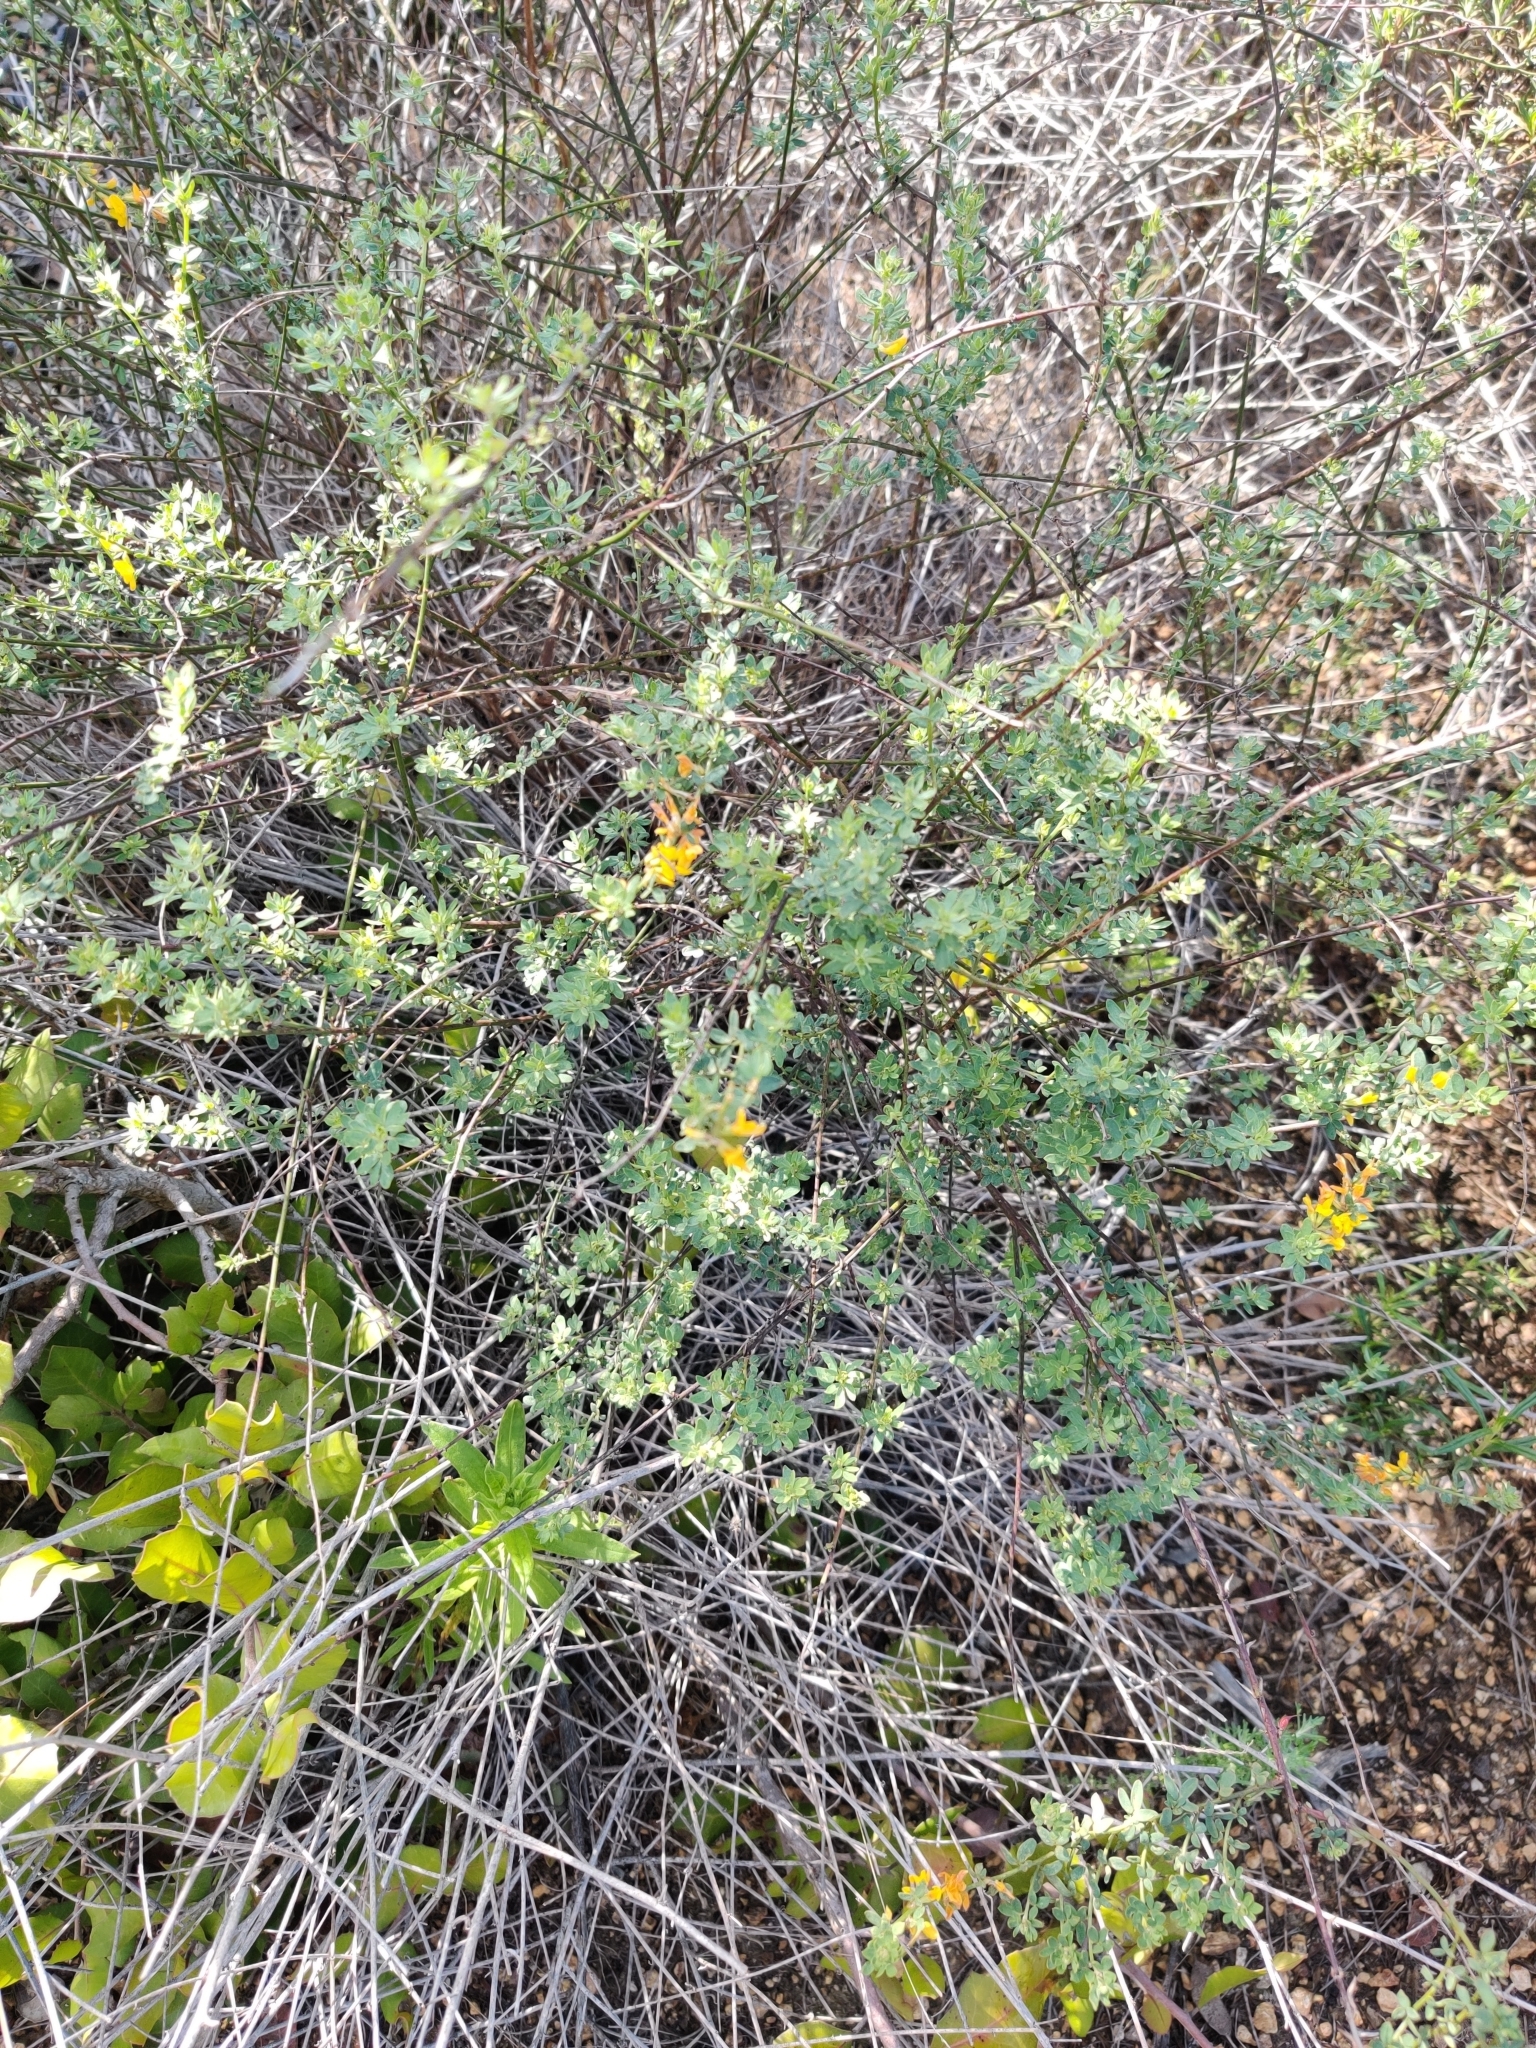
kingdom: Plantae
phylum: Tracheophyta
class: Magnoliopsida
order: Fabales
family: Fabaceae
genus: Acmispon
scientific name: Acmispon glaber
